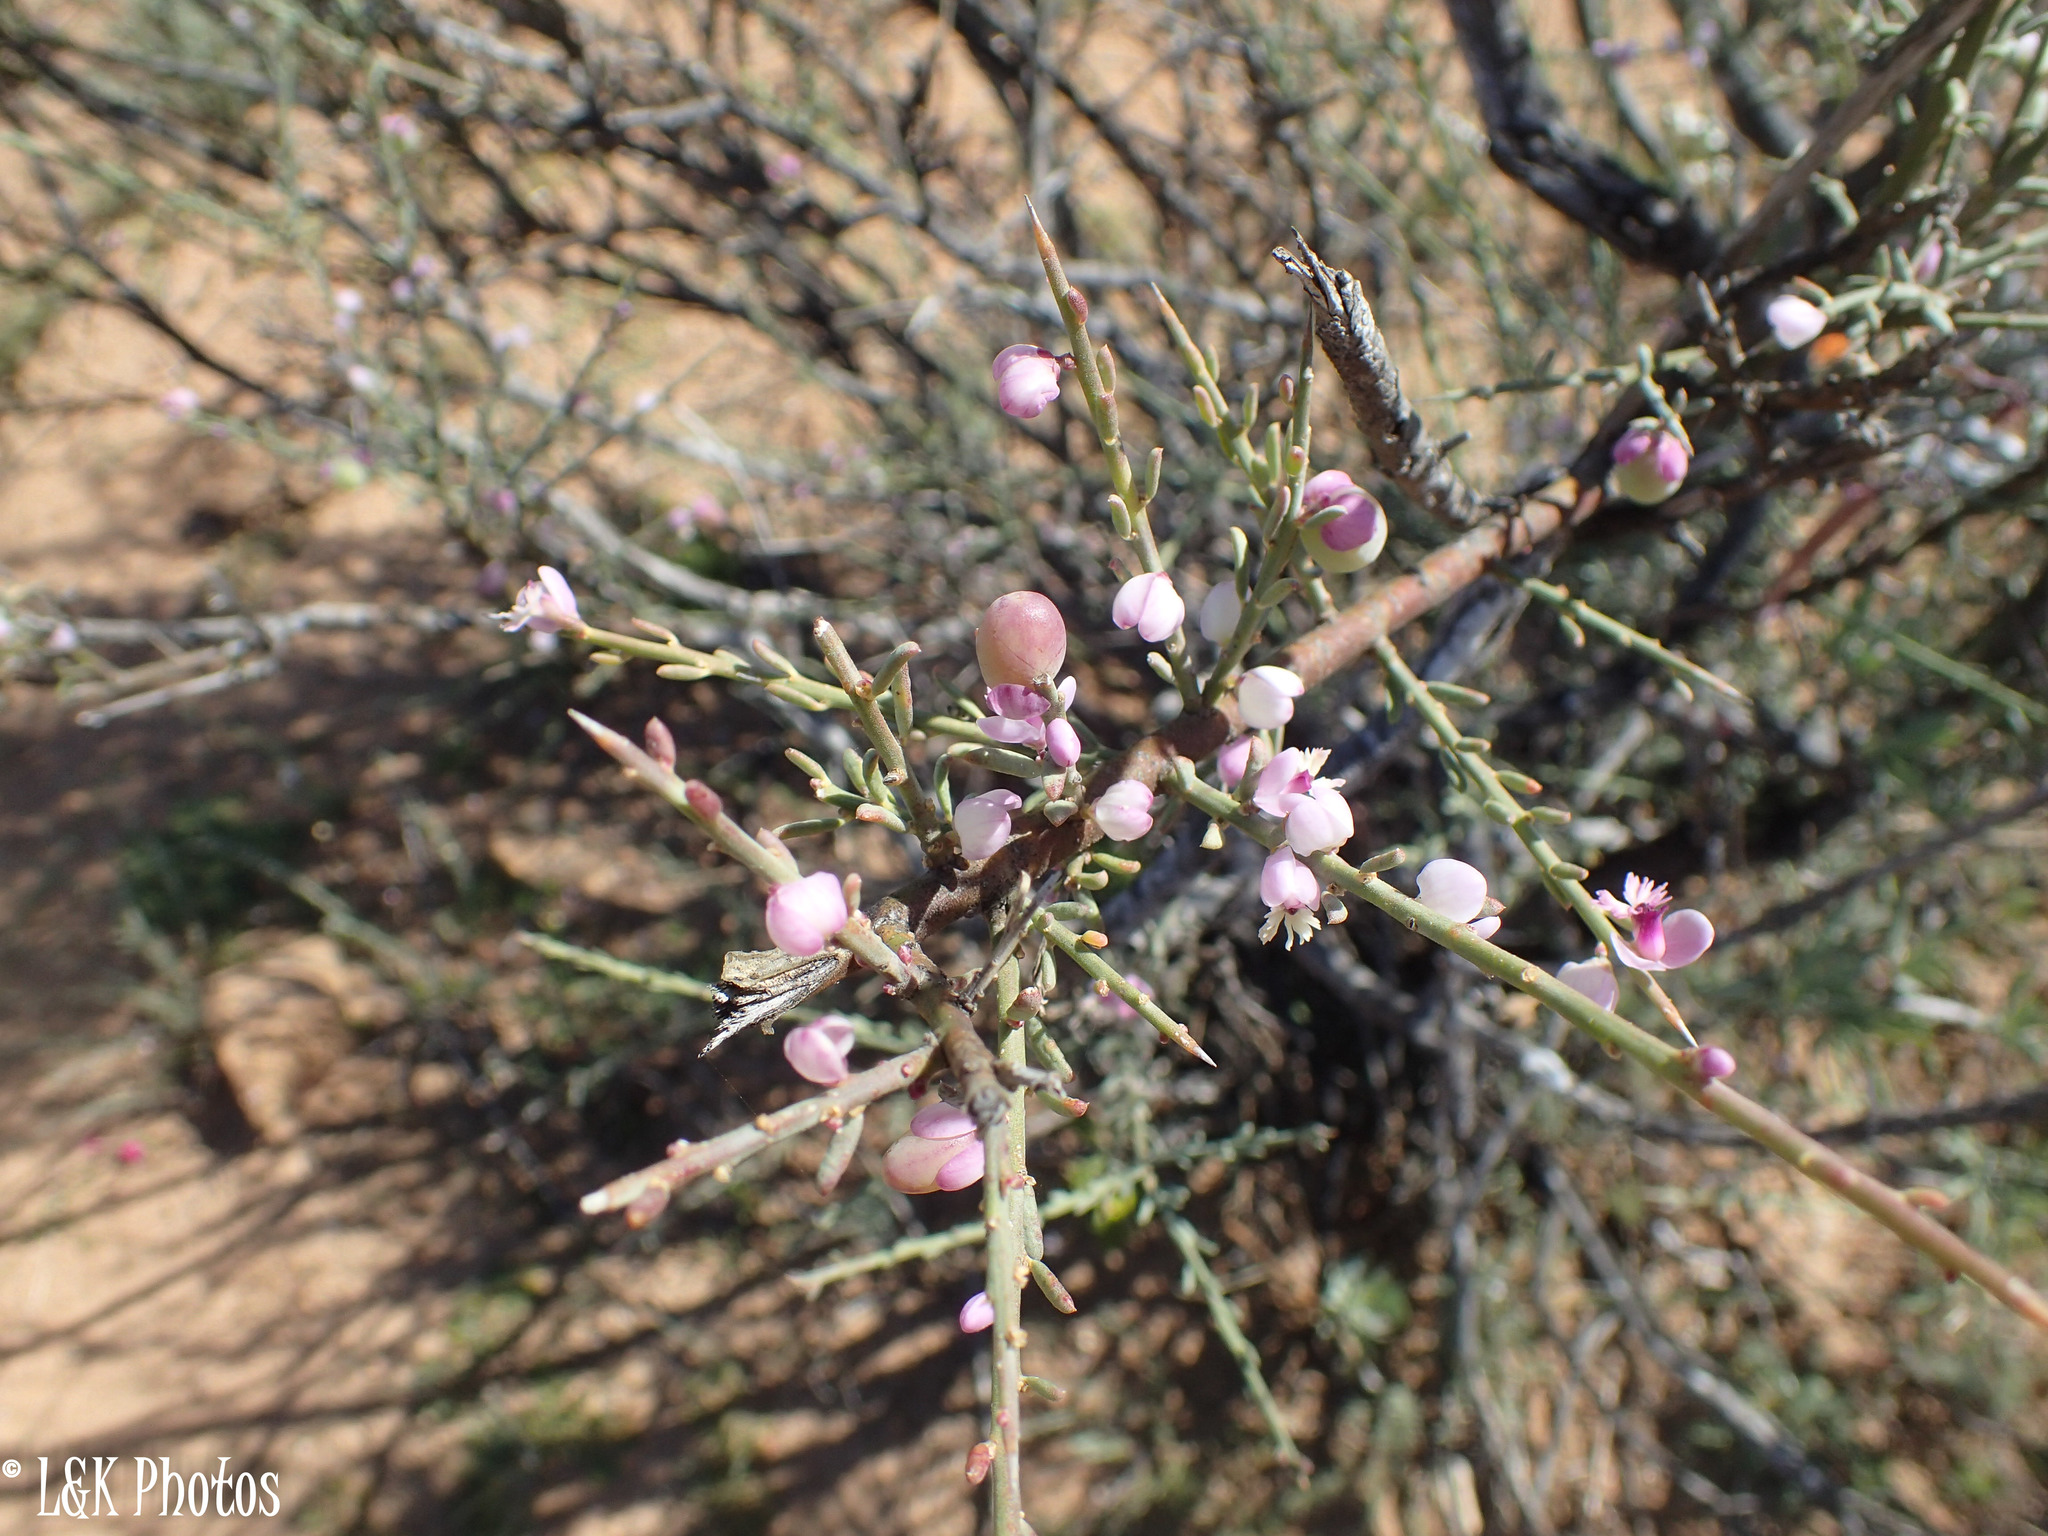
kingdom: Plantae
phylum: Tracheophyta
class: Magnoliopsida
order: Fabales
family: Polygalaceae
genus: Muraltia
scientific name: Muraltia spinosa
